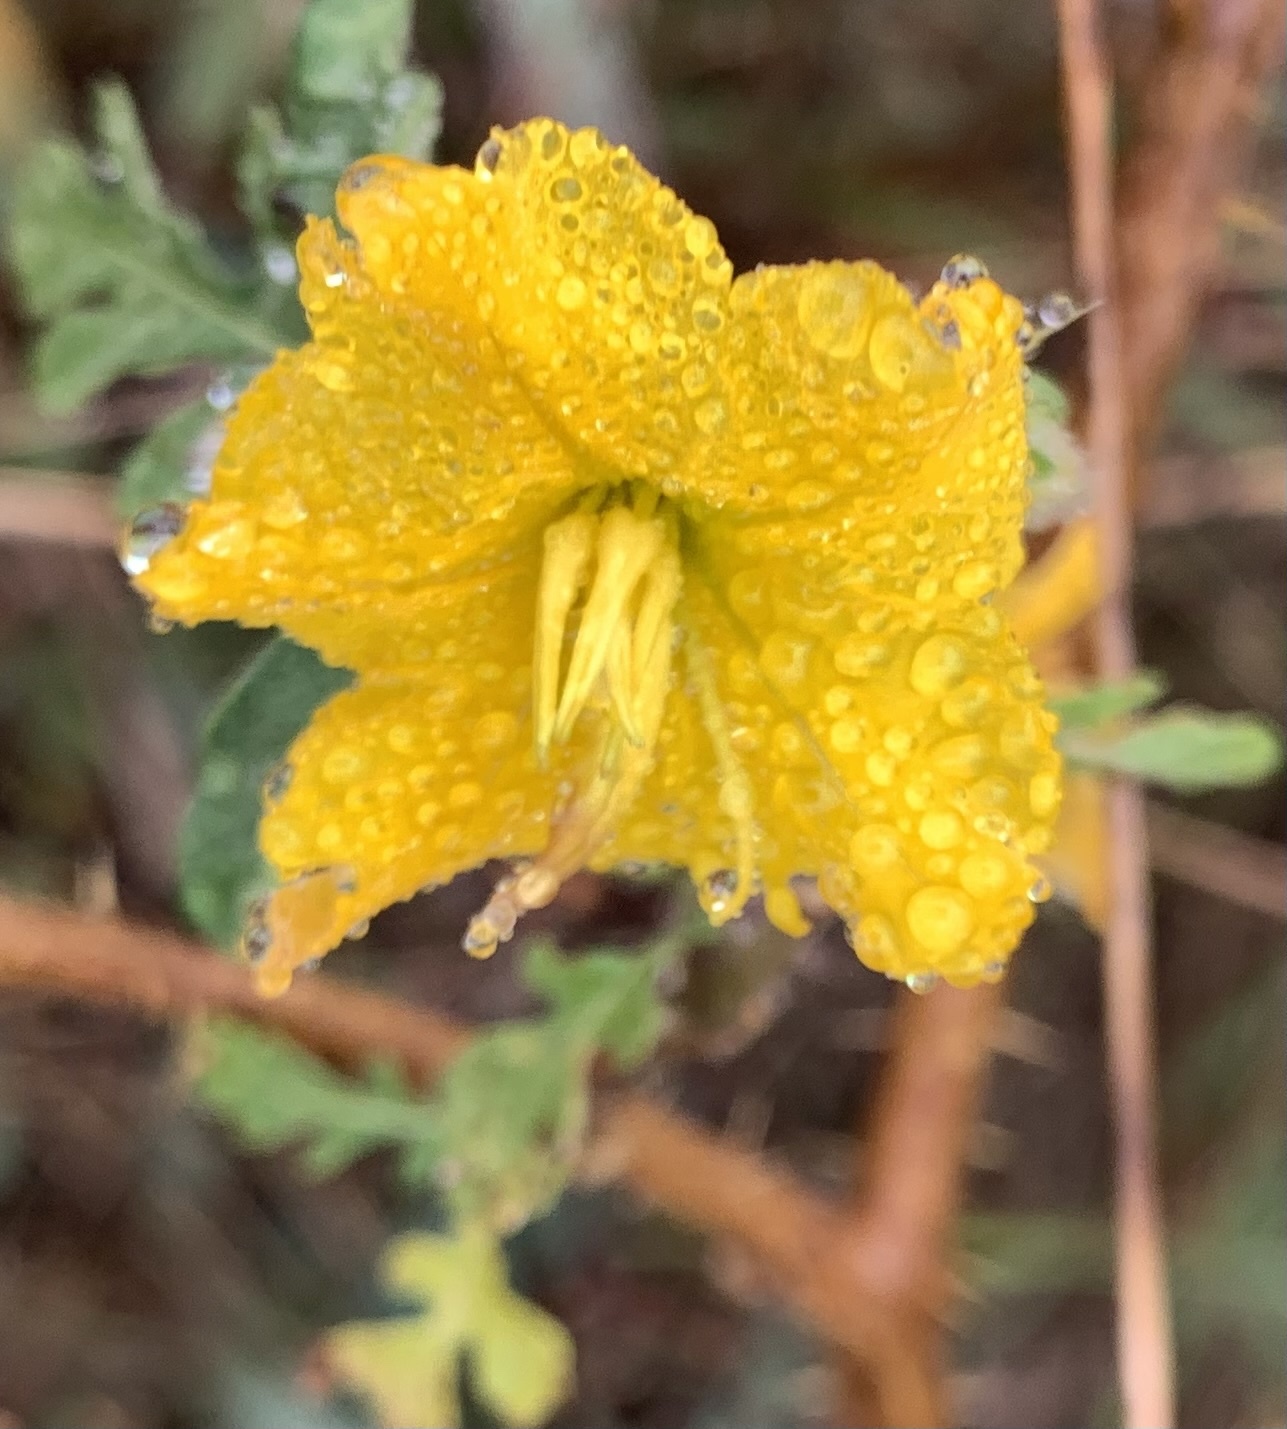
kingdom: Plantae
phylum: Tracheophyta
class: Magnoliopsida
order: Solanales
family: Solanaceae
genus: Solanum
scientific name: Solanum angustifolium
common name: Buffalobur nightshade
